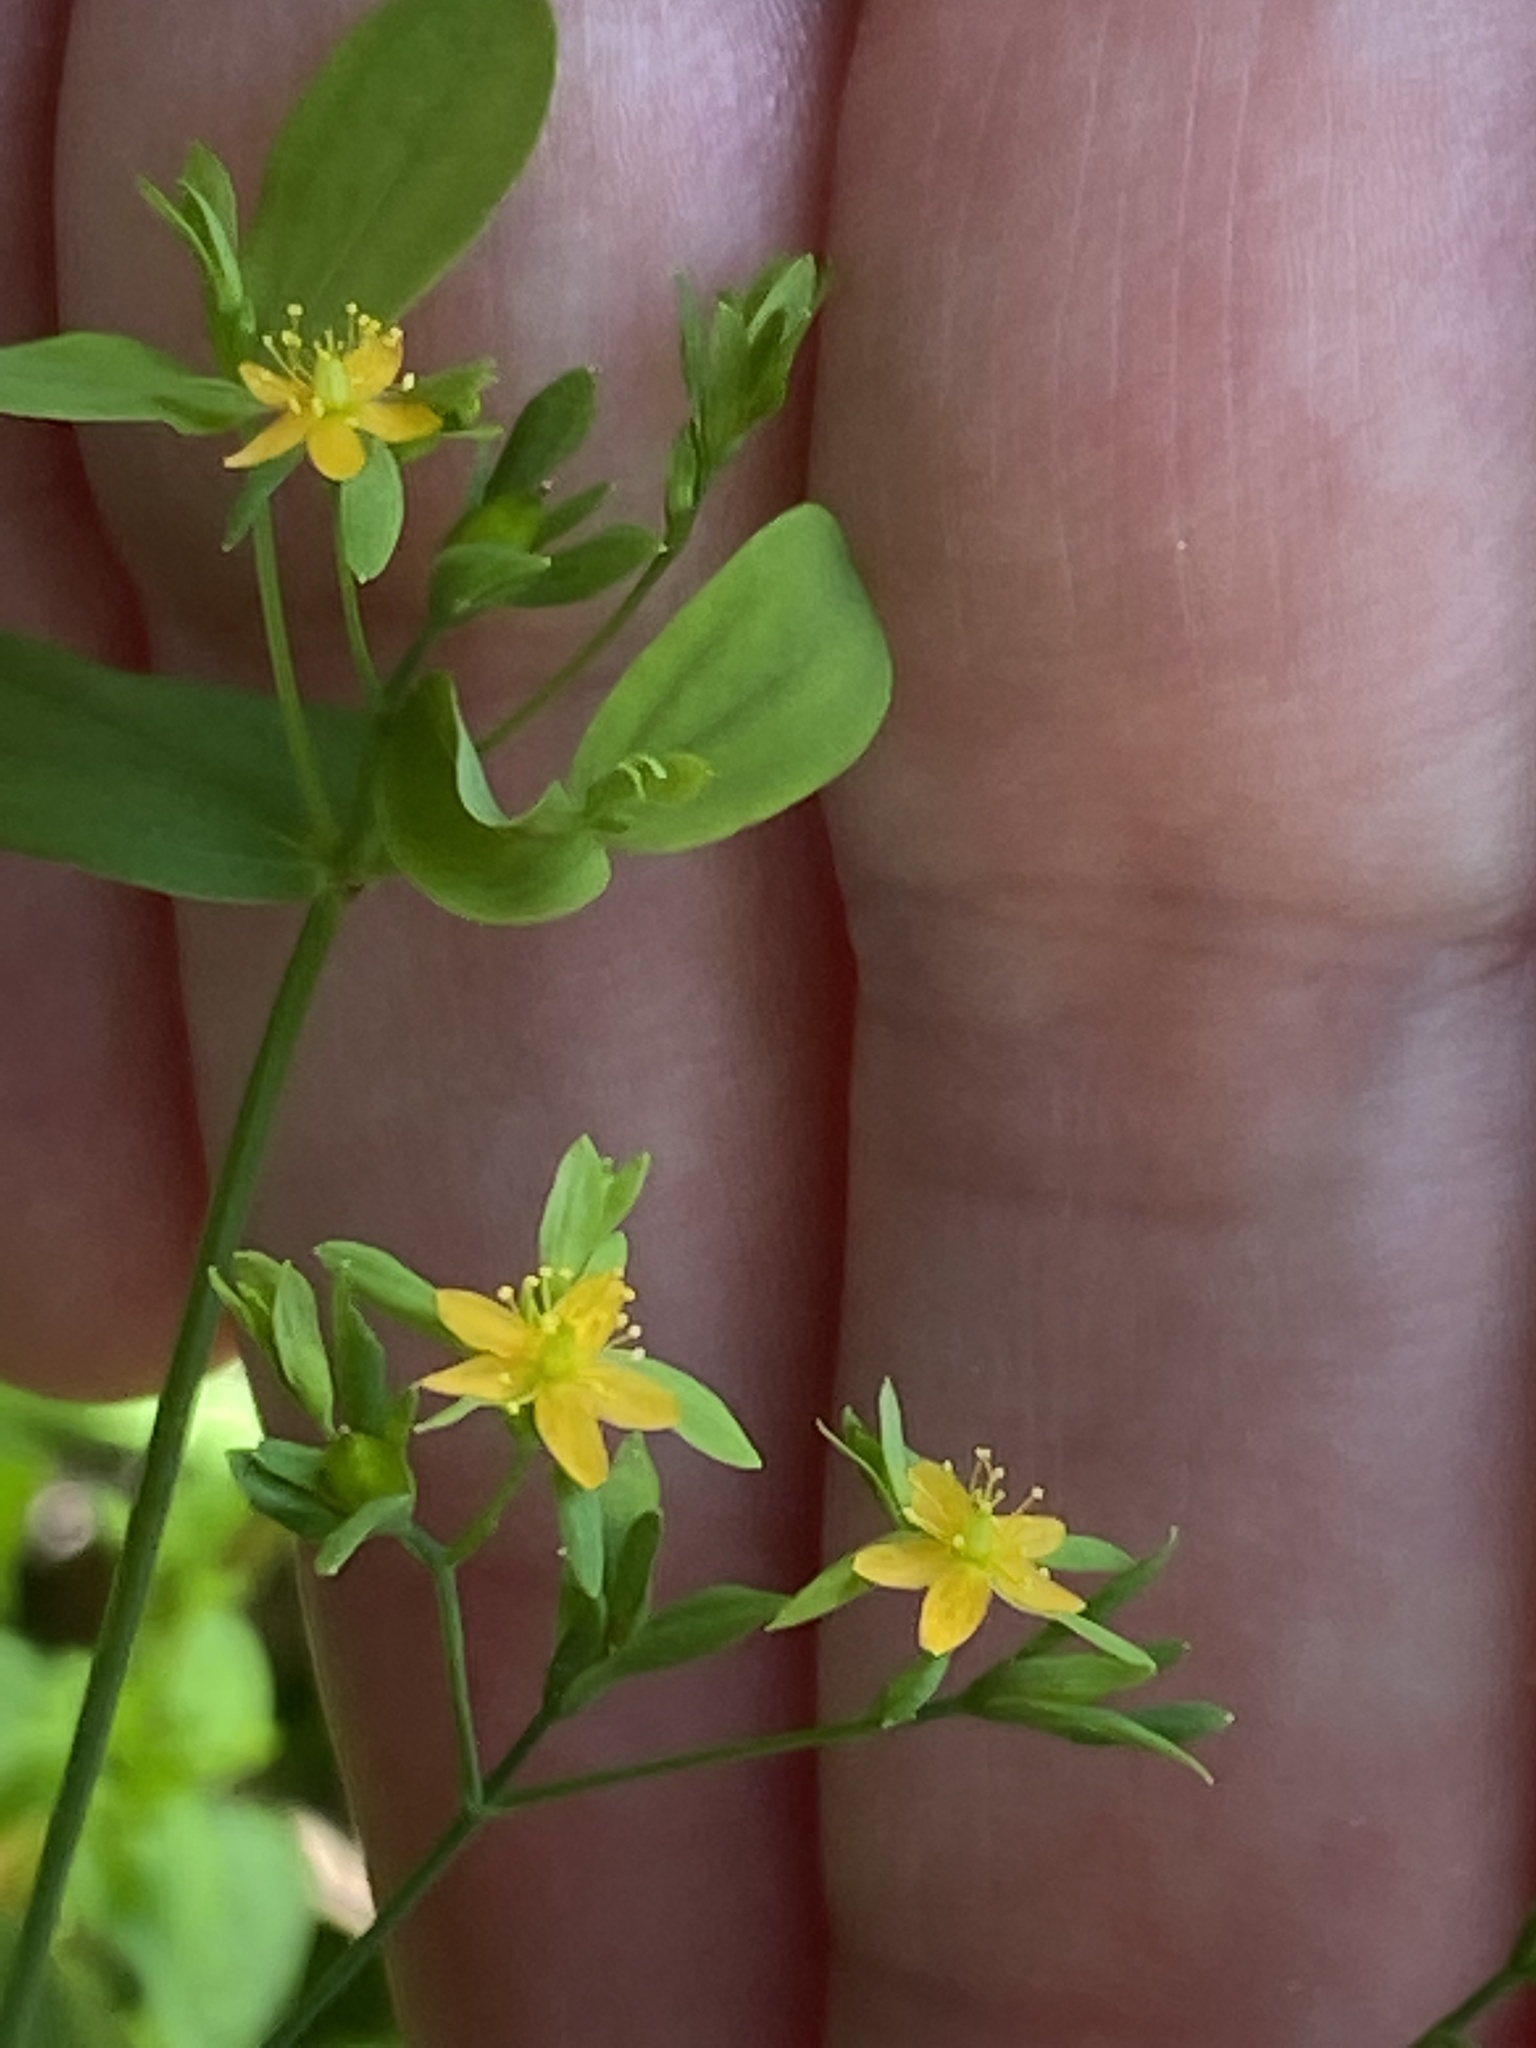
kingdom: Plantae
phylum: Tracheophyta
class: Magnoliopsida
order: Malpighiales
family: Hypericaceae
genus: Hypericum
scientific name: Hypericum mutilum
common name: Dwarf st. john's-wort
